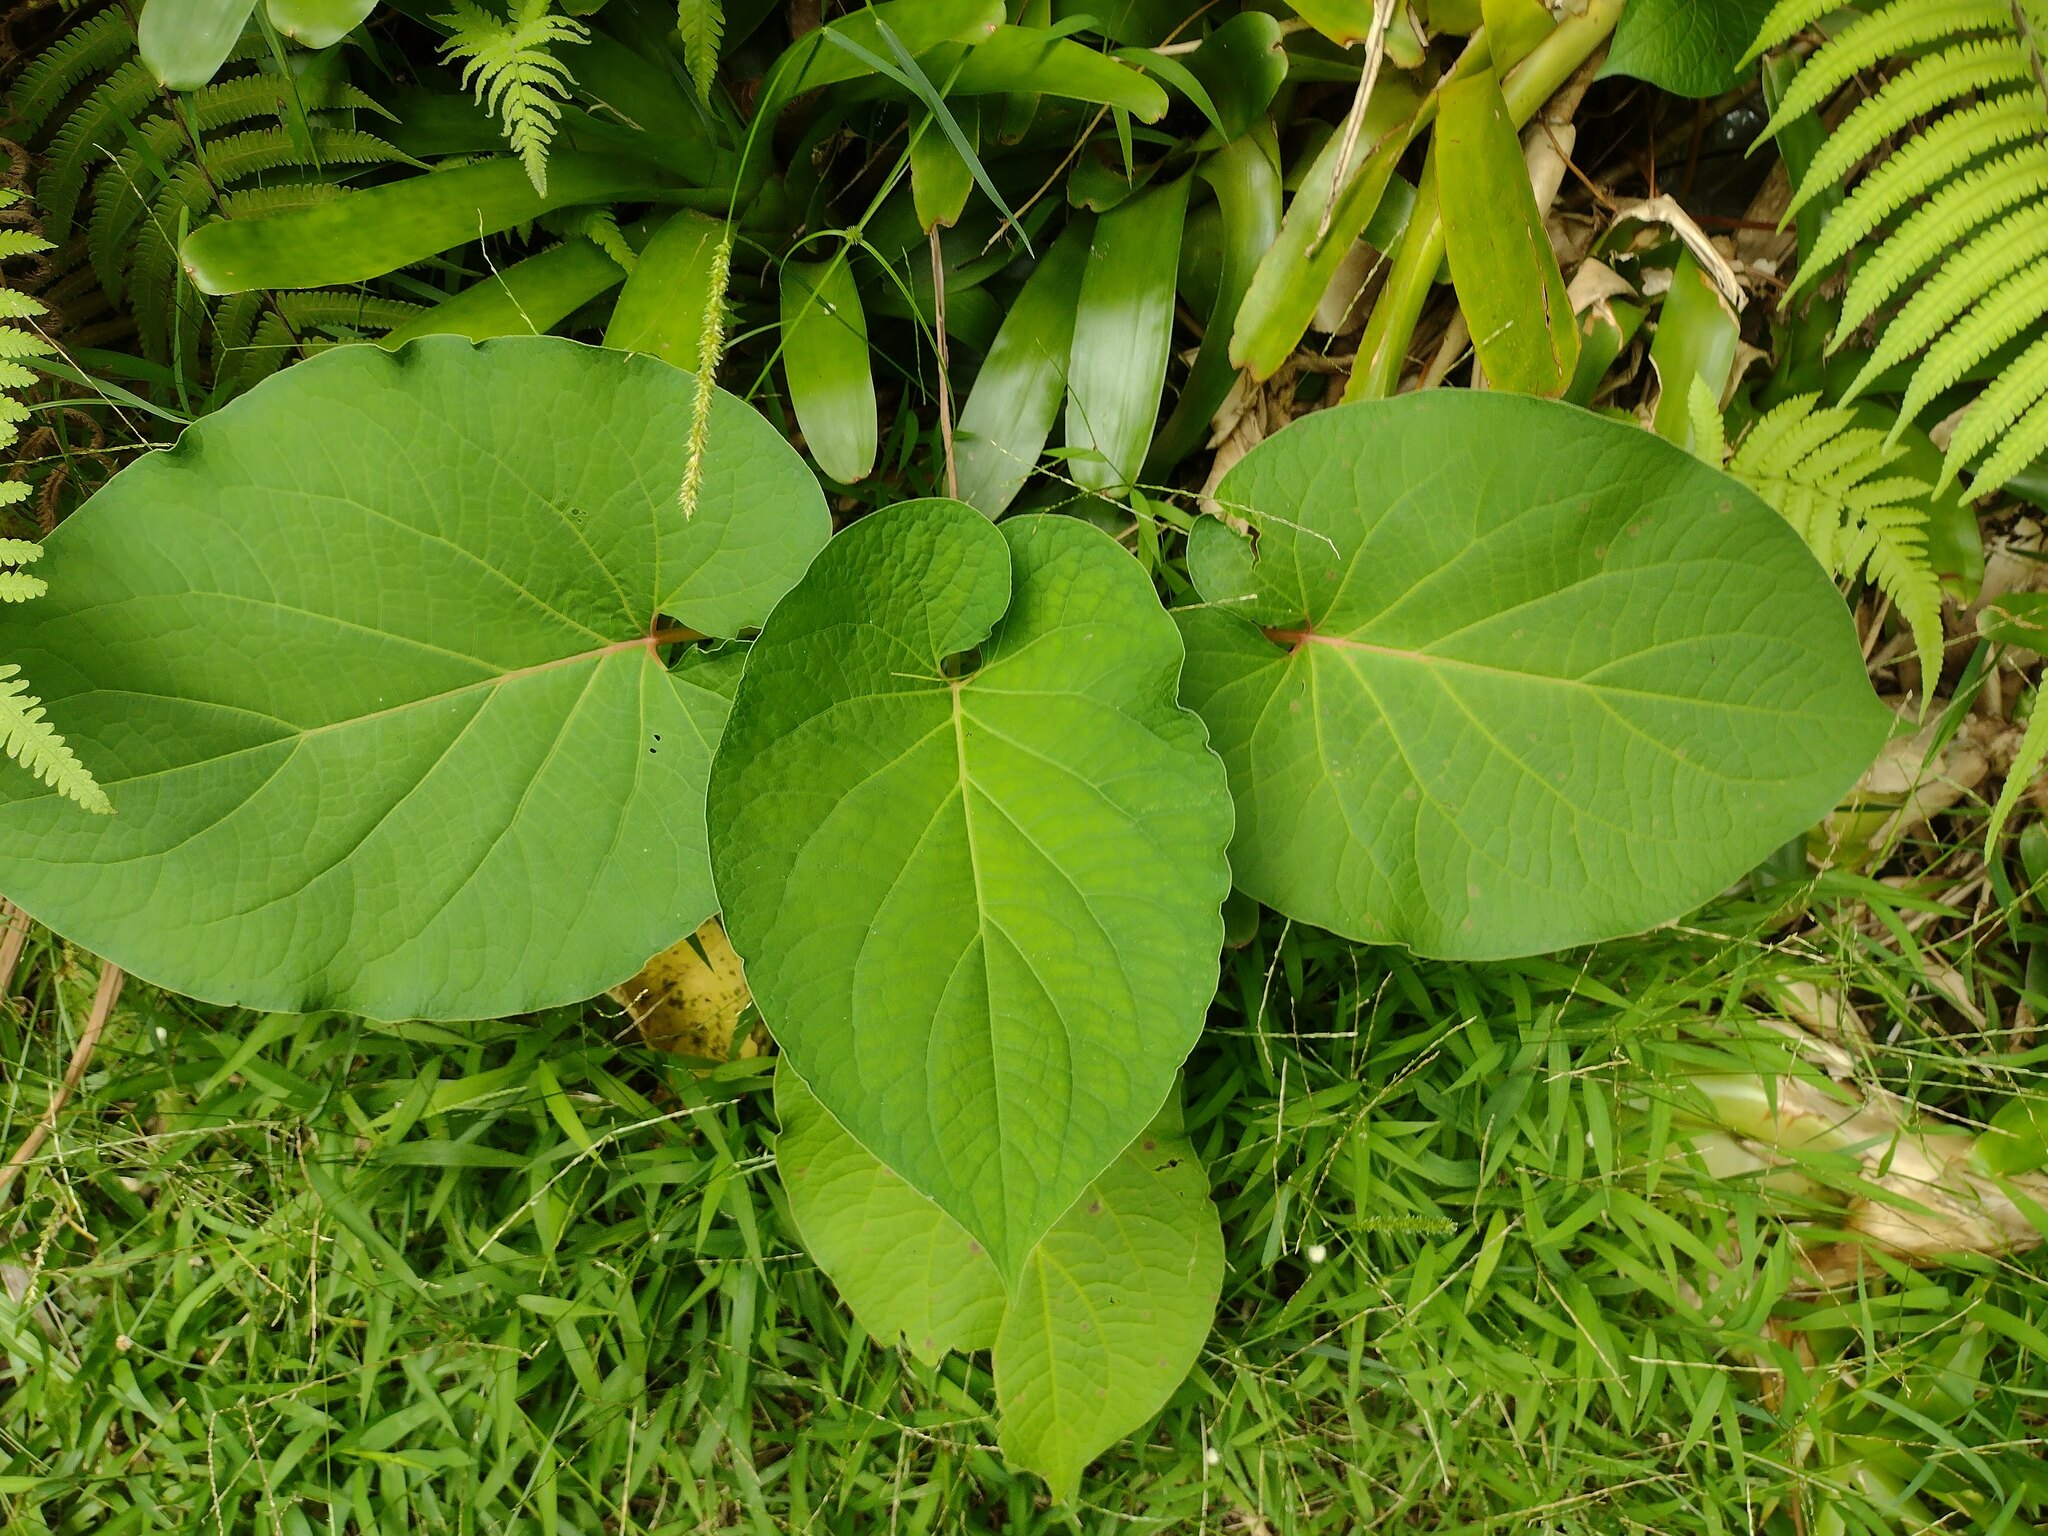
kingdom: Plantae
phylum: Tracheophyta
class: Magnoliopsida
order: Piperales
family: Piperaceae
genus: Piper
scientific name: Piper auritum
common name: Vera cruz pepper
